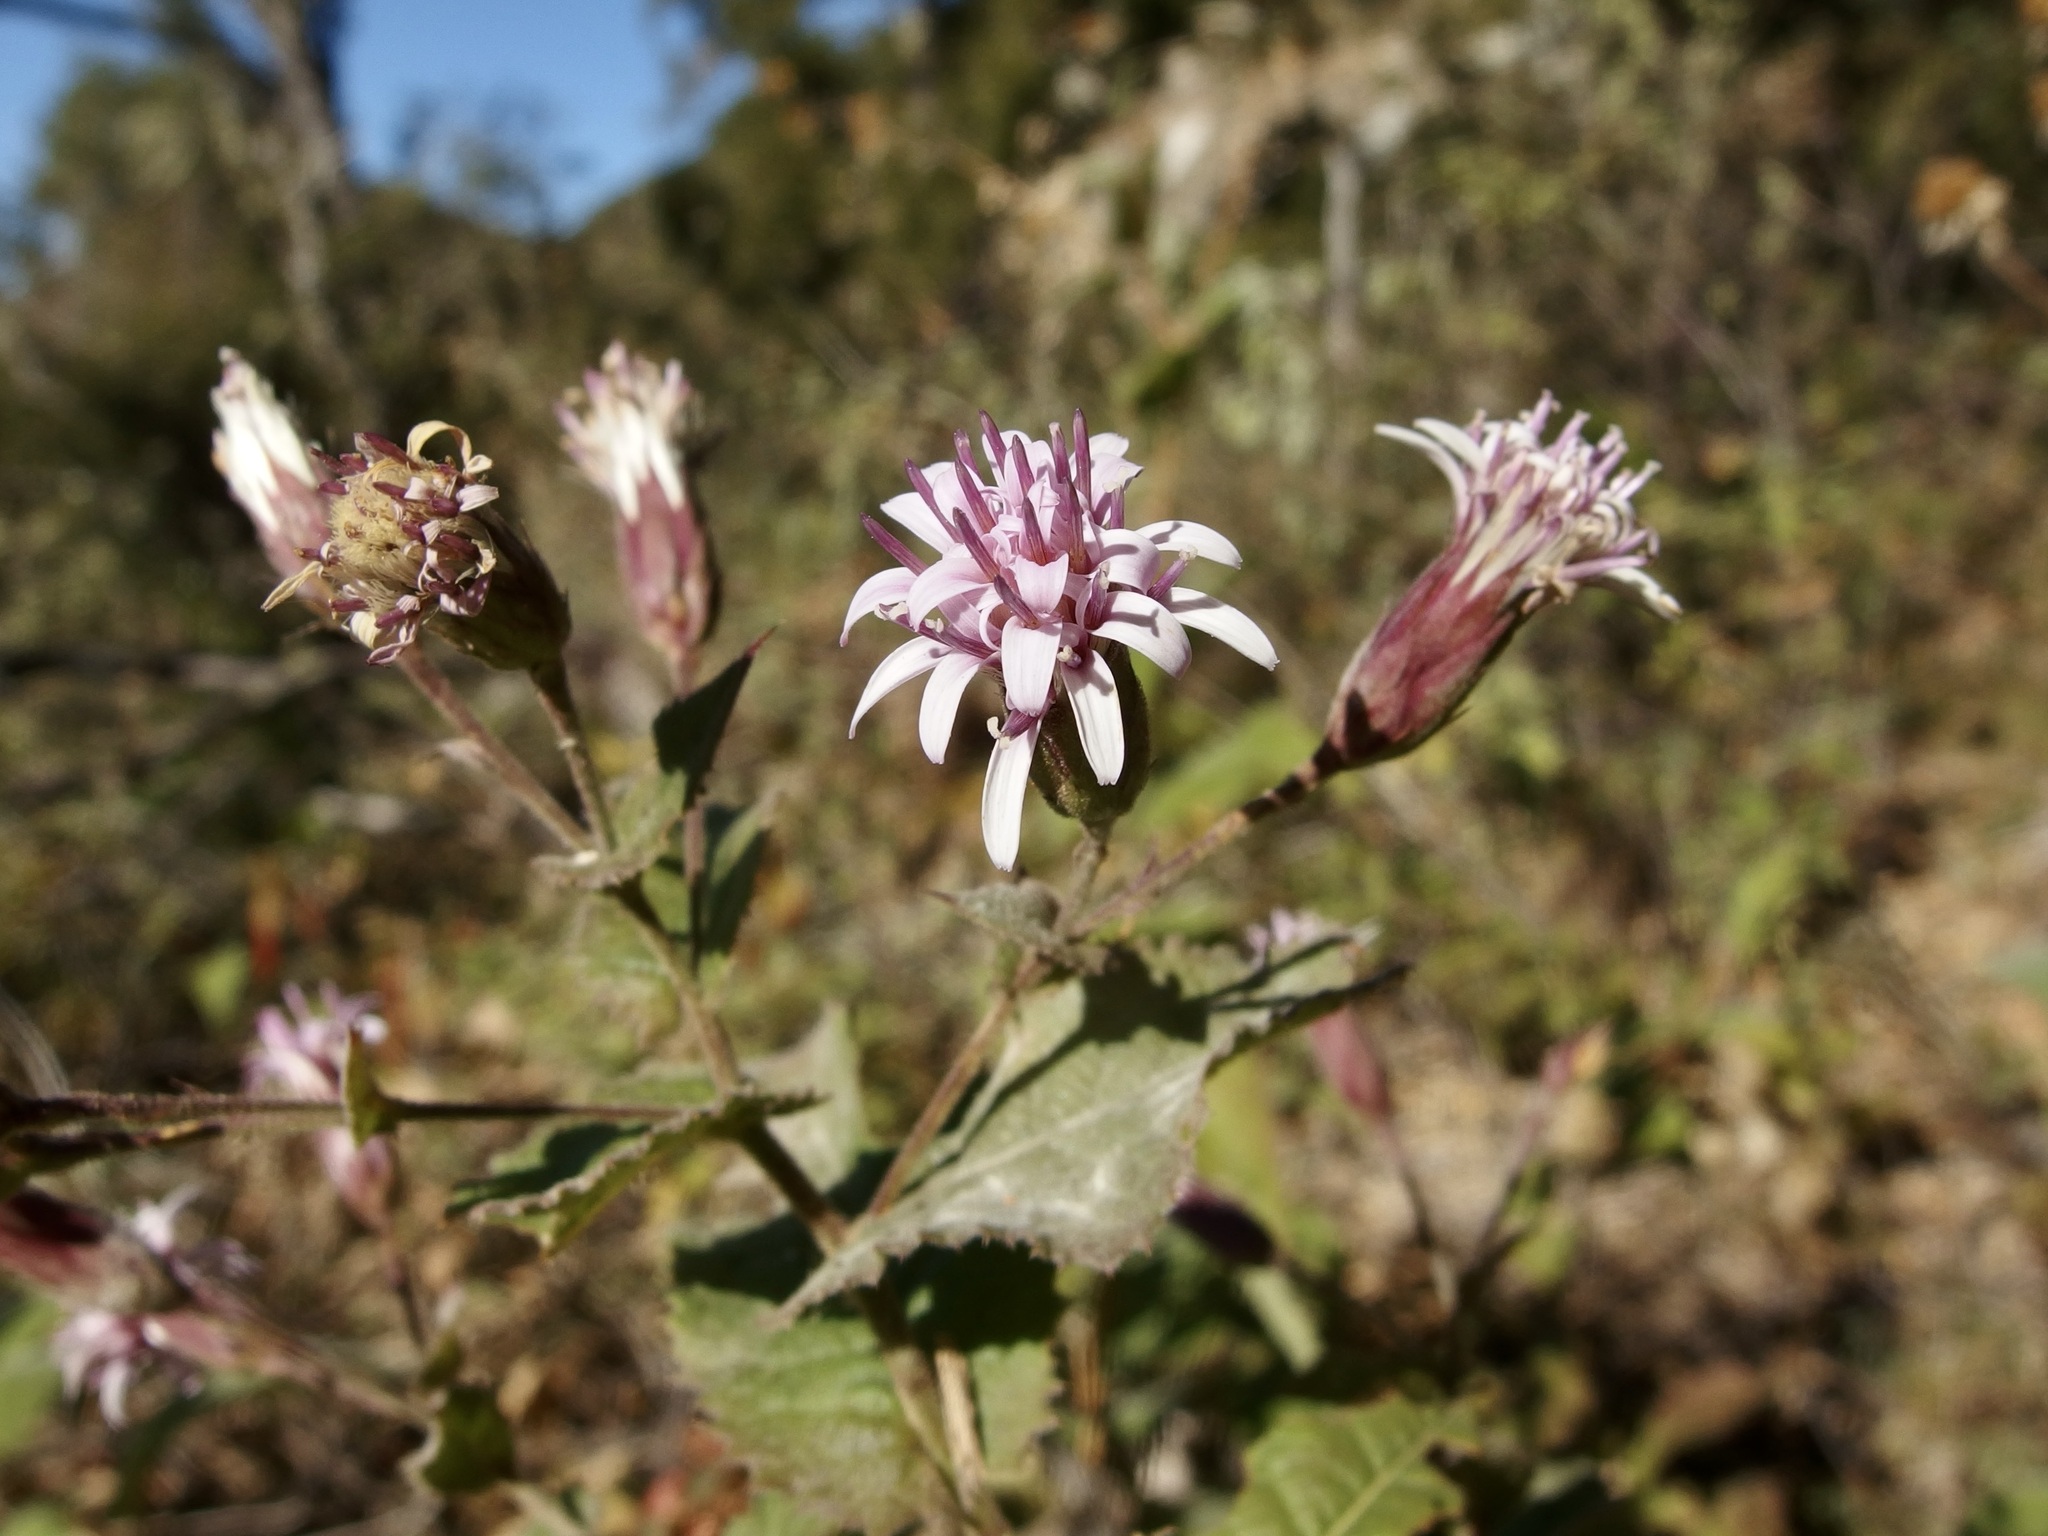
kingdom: Plantae
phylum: Tracheophyta
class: Magnoliopsida
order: Asterales
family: Asteraceae
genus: Acourtia
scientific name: Acourtia pinetorum
